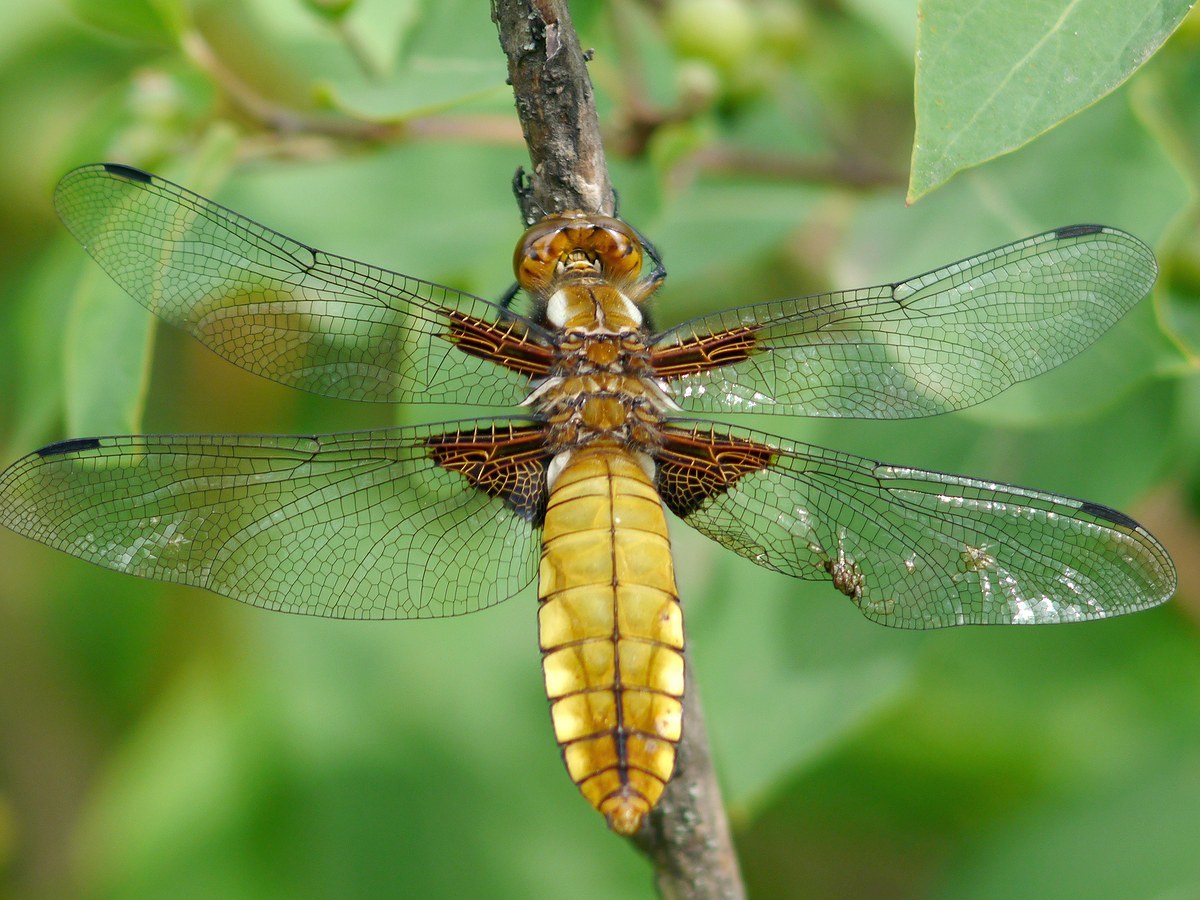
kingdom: Animalia
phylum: Arthropoda
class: Insecta
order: Odonata
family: Libellulidae
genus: Libellula
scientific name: Libellula depressa
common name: Broad-bodied chaser
